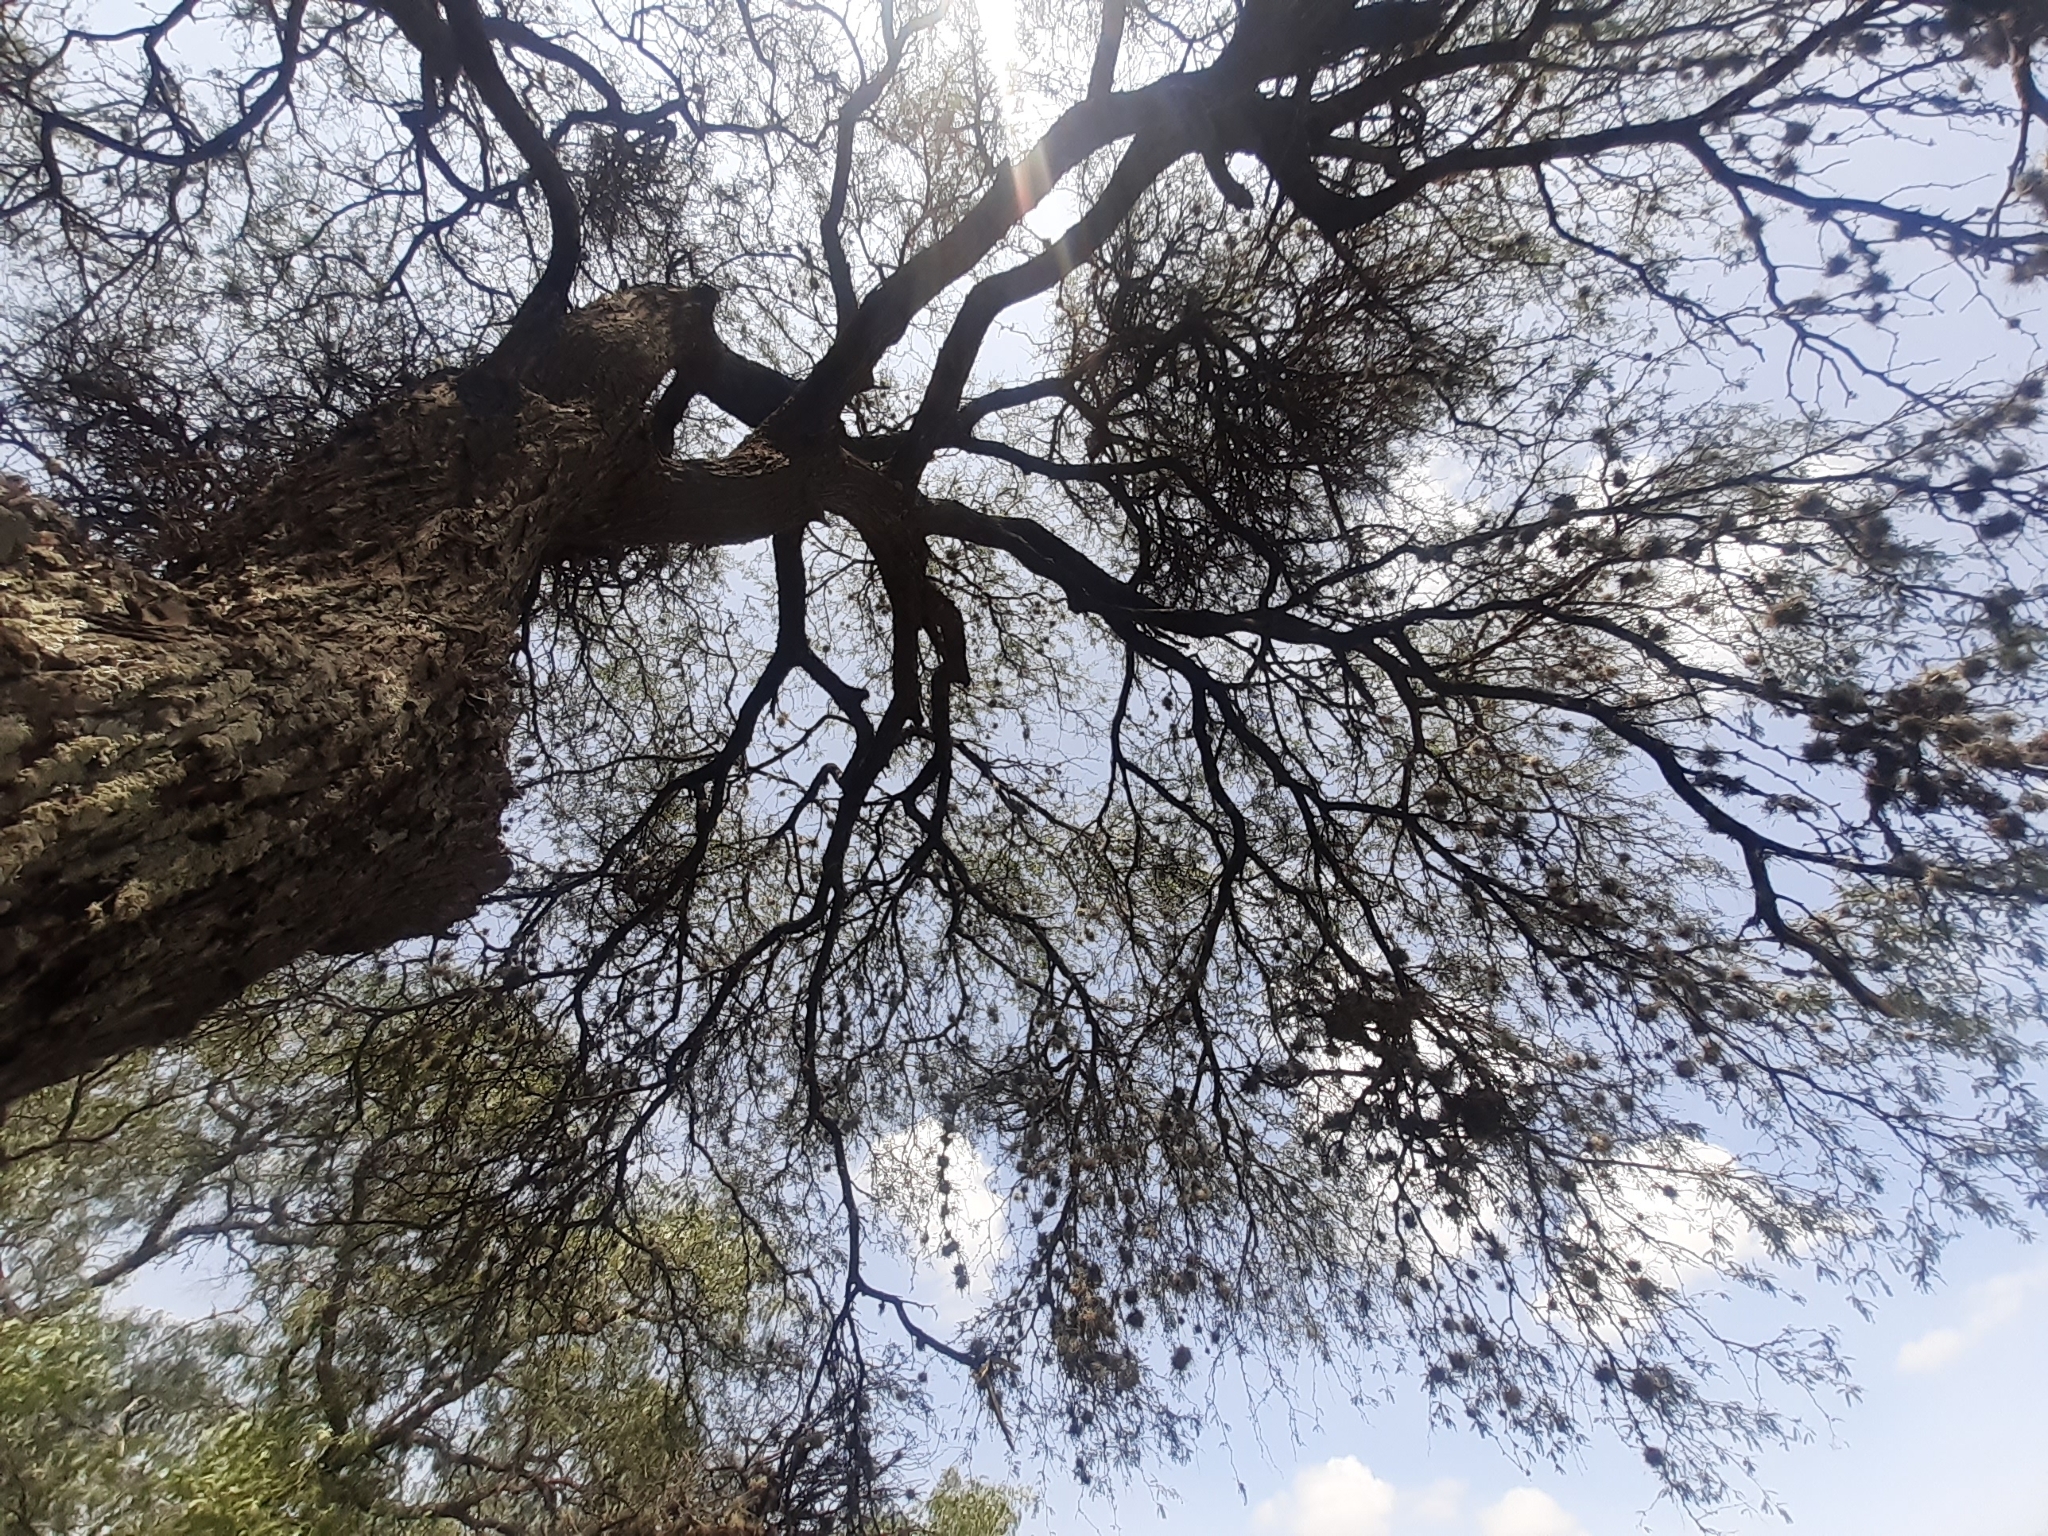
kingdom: Plantae
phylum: Tracheophyta
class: Magnoliopsida
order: Fabales
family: Fabaceae
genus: Prosopis
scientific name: Prosopis laevigata
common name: Smooth mesquite
